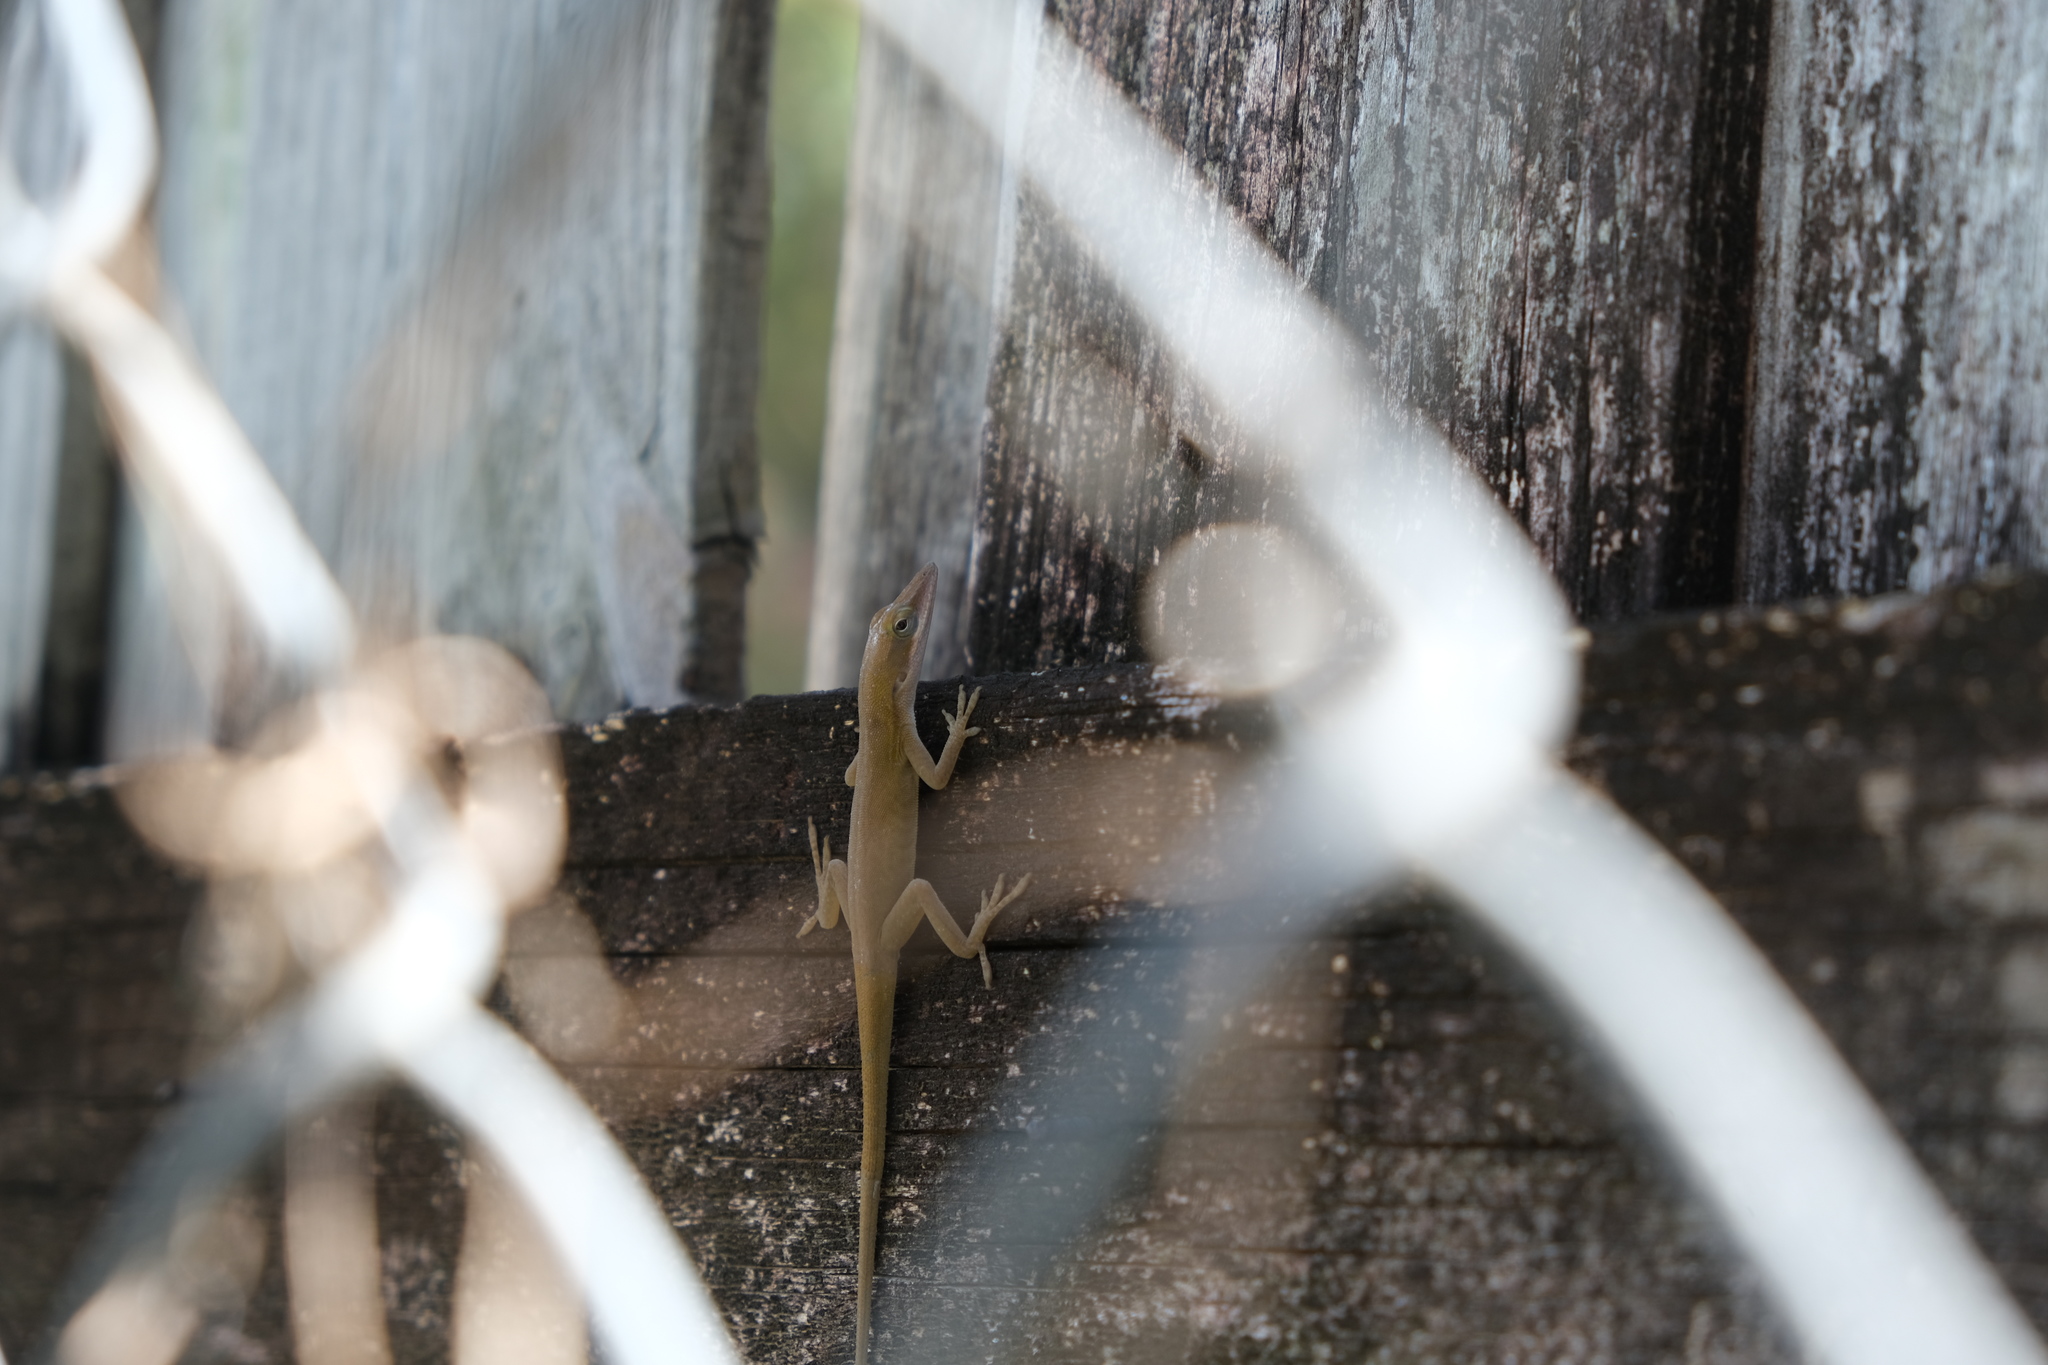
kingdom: Animalia
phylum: Chordata
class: Squamata
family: Dactyloidae
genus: Anolis
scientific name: Anolis allisoni
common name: Allison's anole
